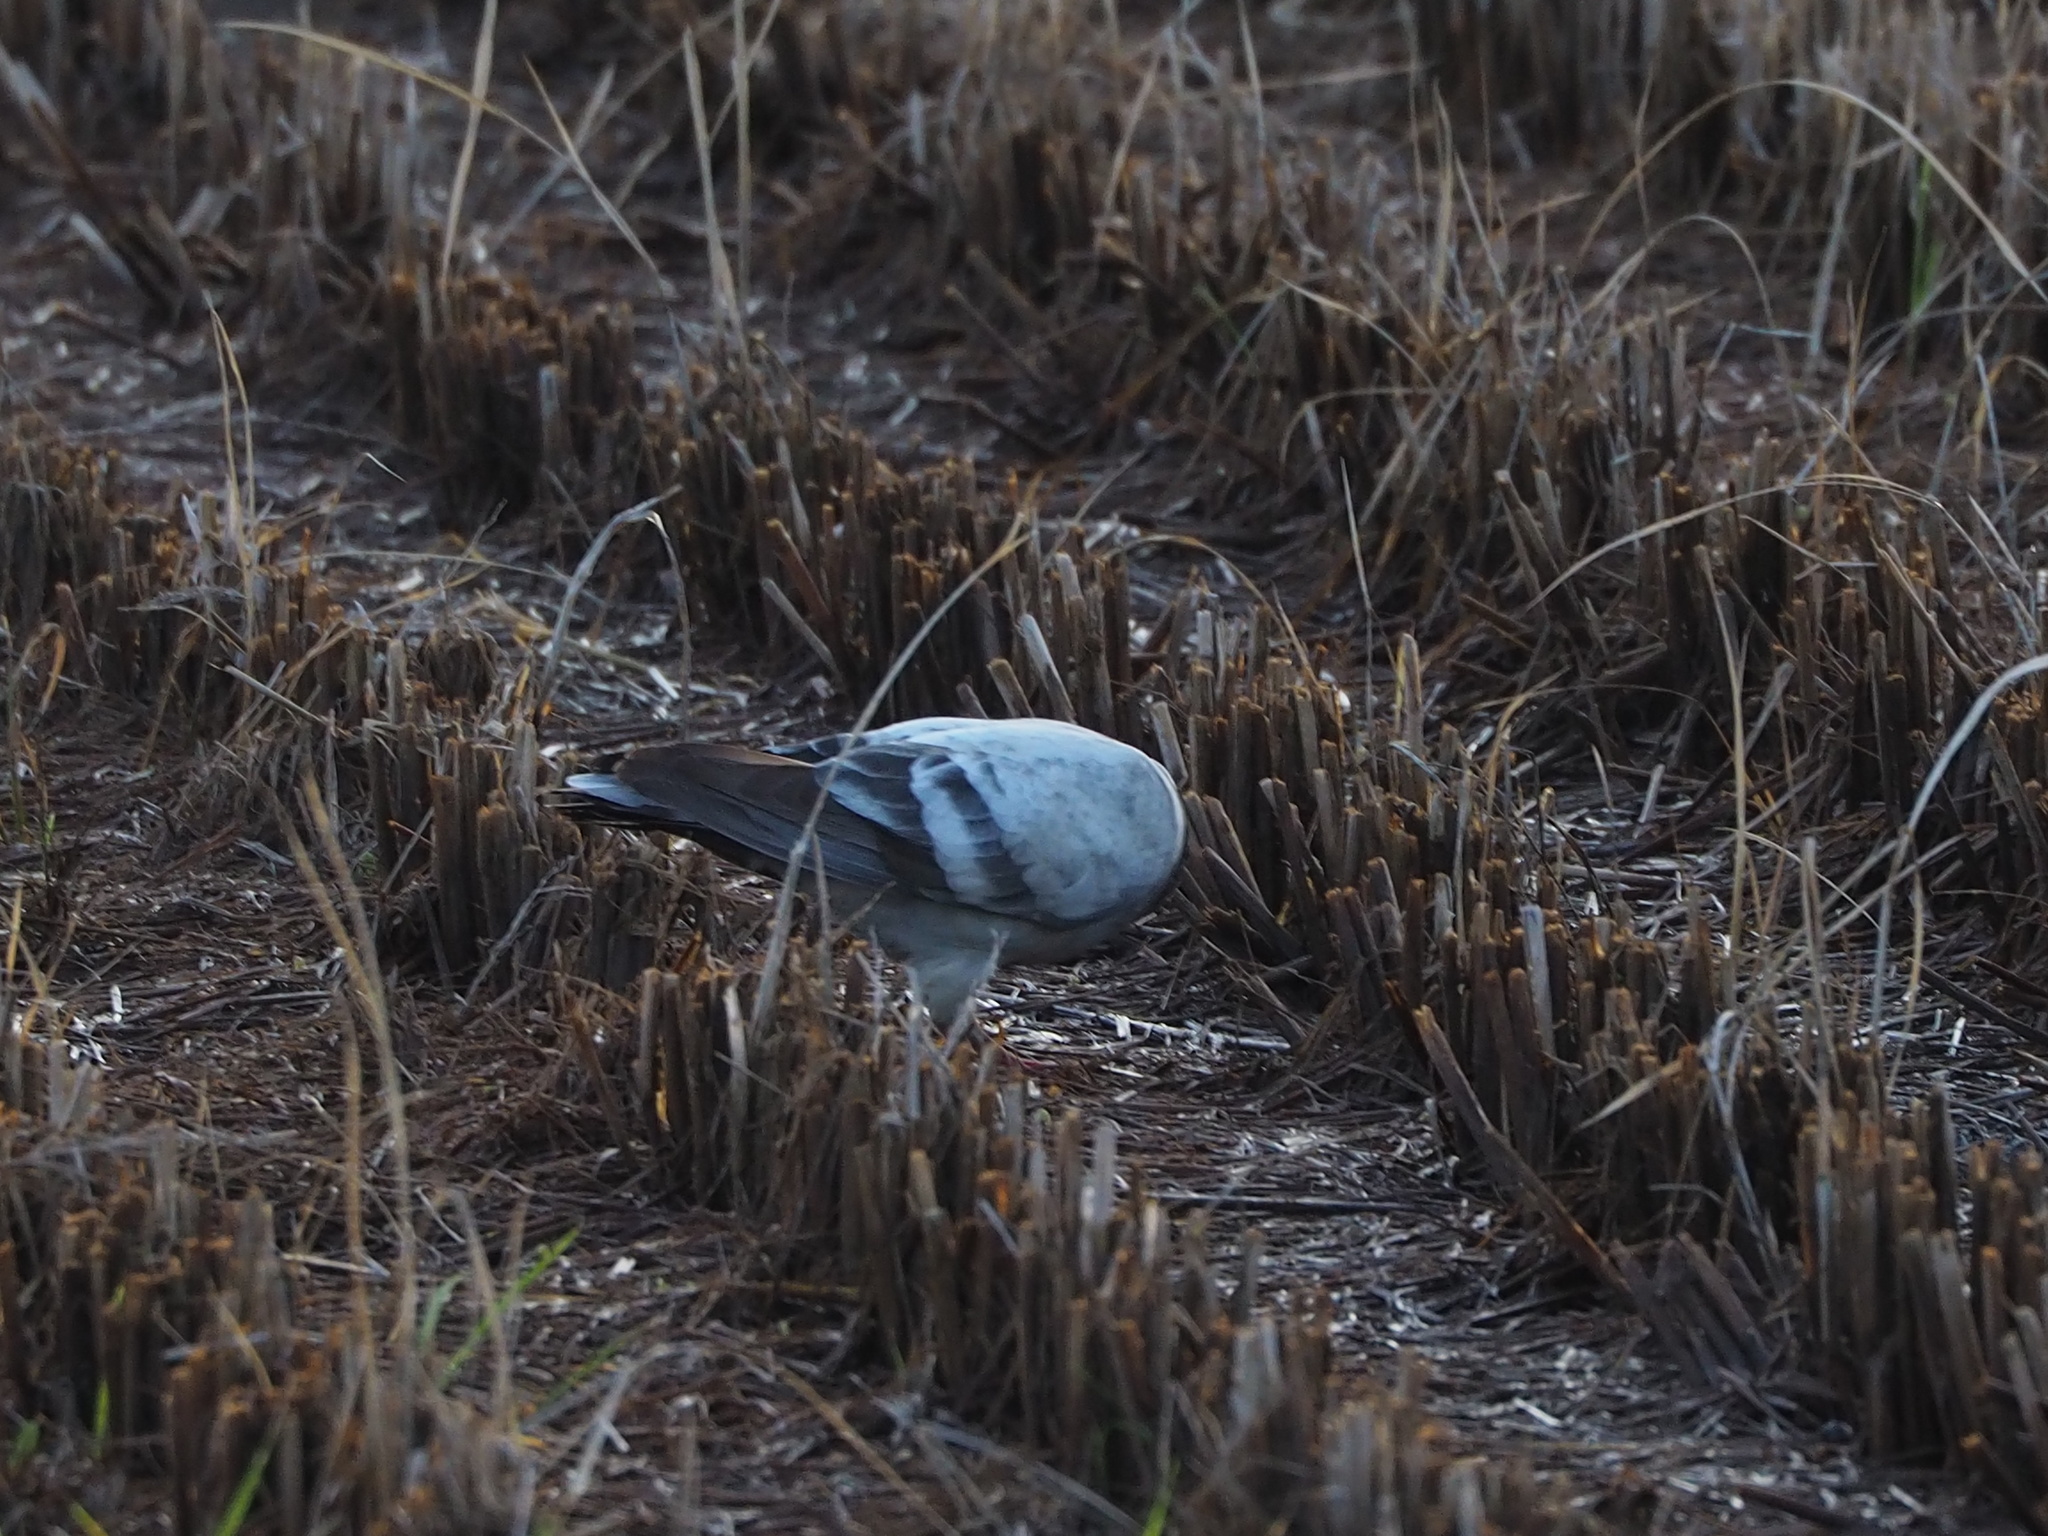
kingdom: Animalia
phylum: Chordata
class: Aves
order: Columbiformes
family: Columbidae
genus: Columba
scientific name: Columba livia
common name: Rock pigeon
